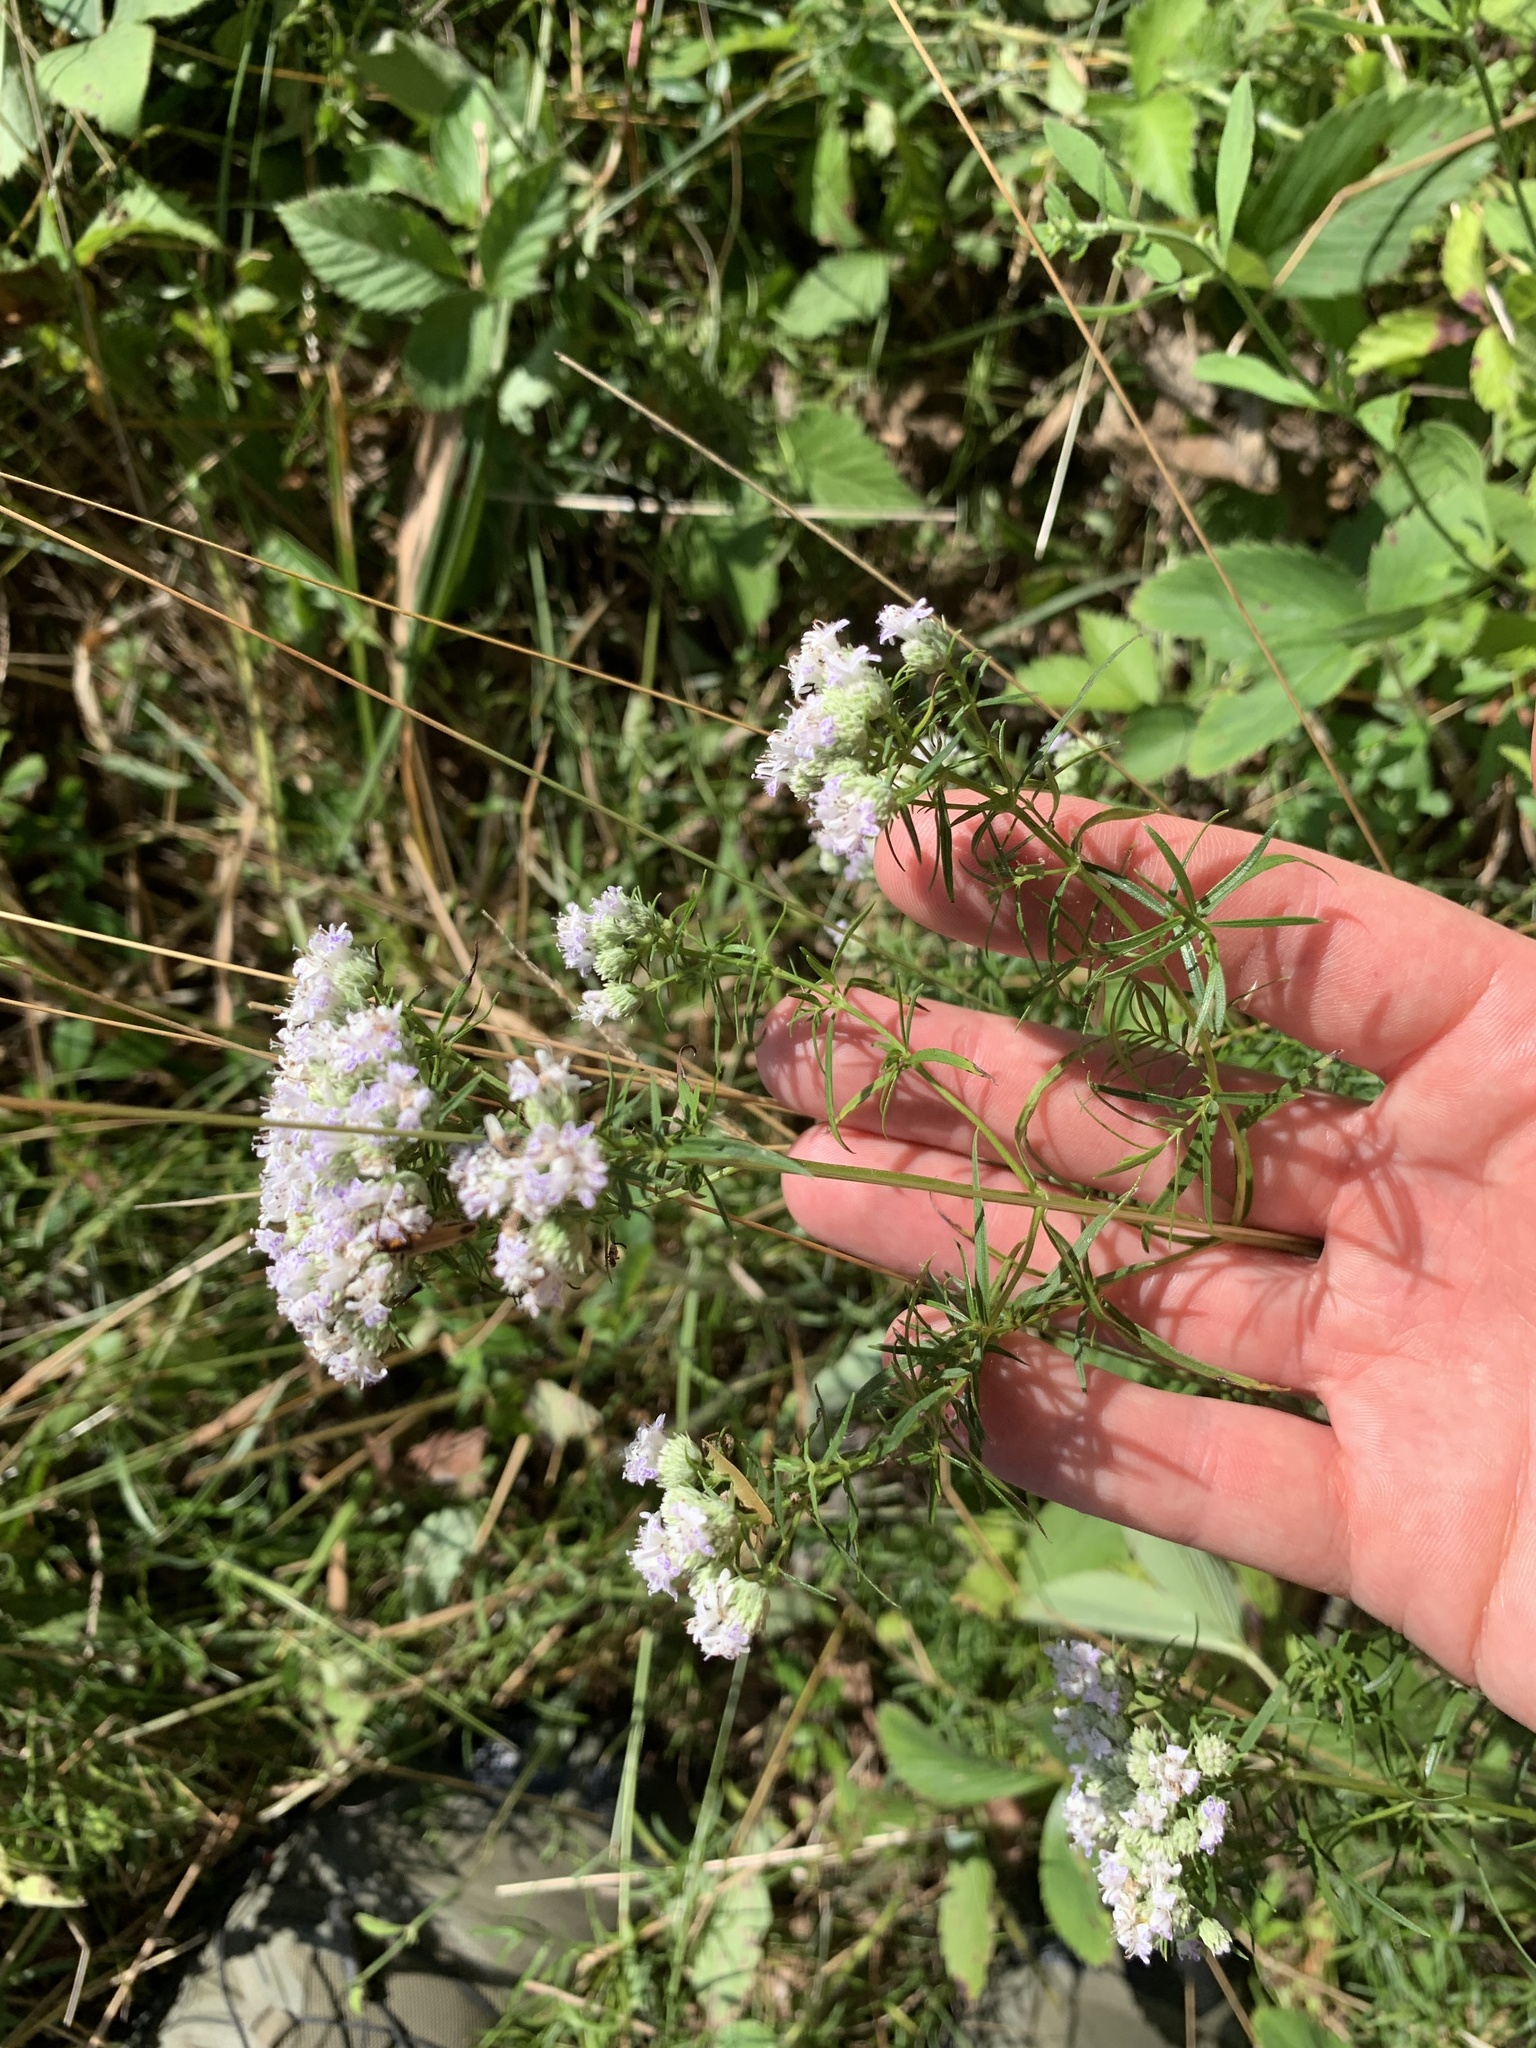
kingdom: Plantae
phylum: Tracheophyta
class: Magnoliopsida
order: Lamiales
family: Lamiaceae
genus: Pycnanthemum
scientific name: Pycnanthemum tenuifolium
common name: Narrow-leaf mountain-mint
